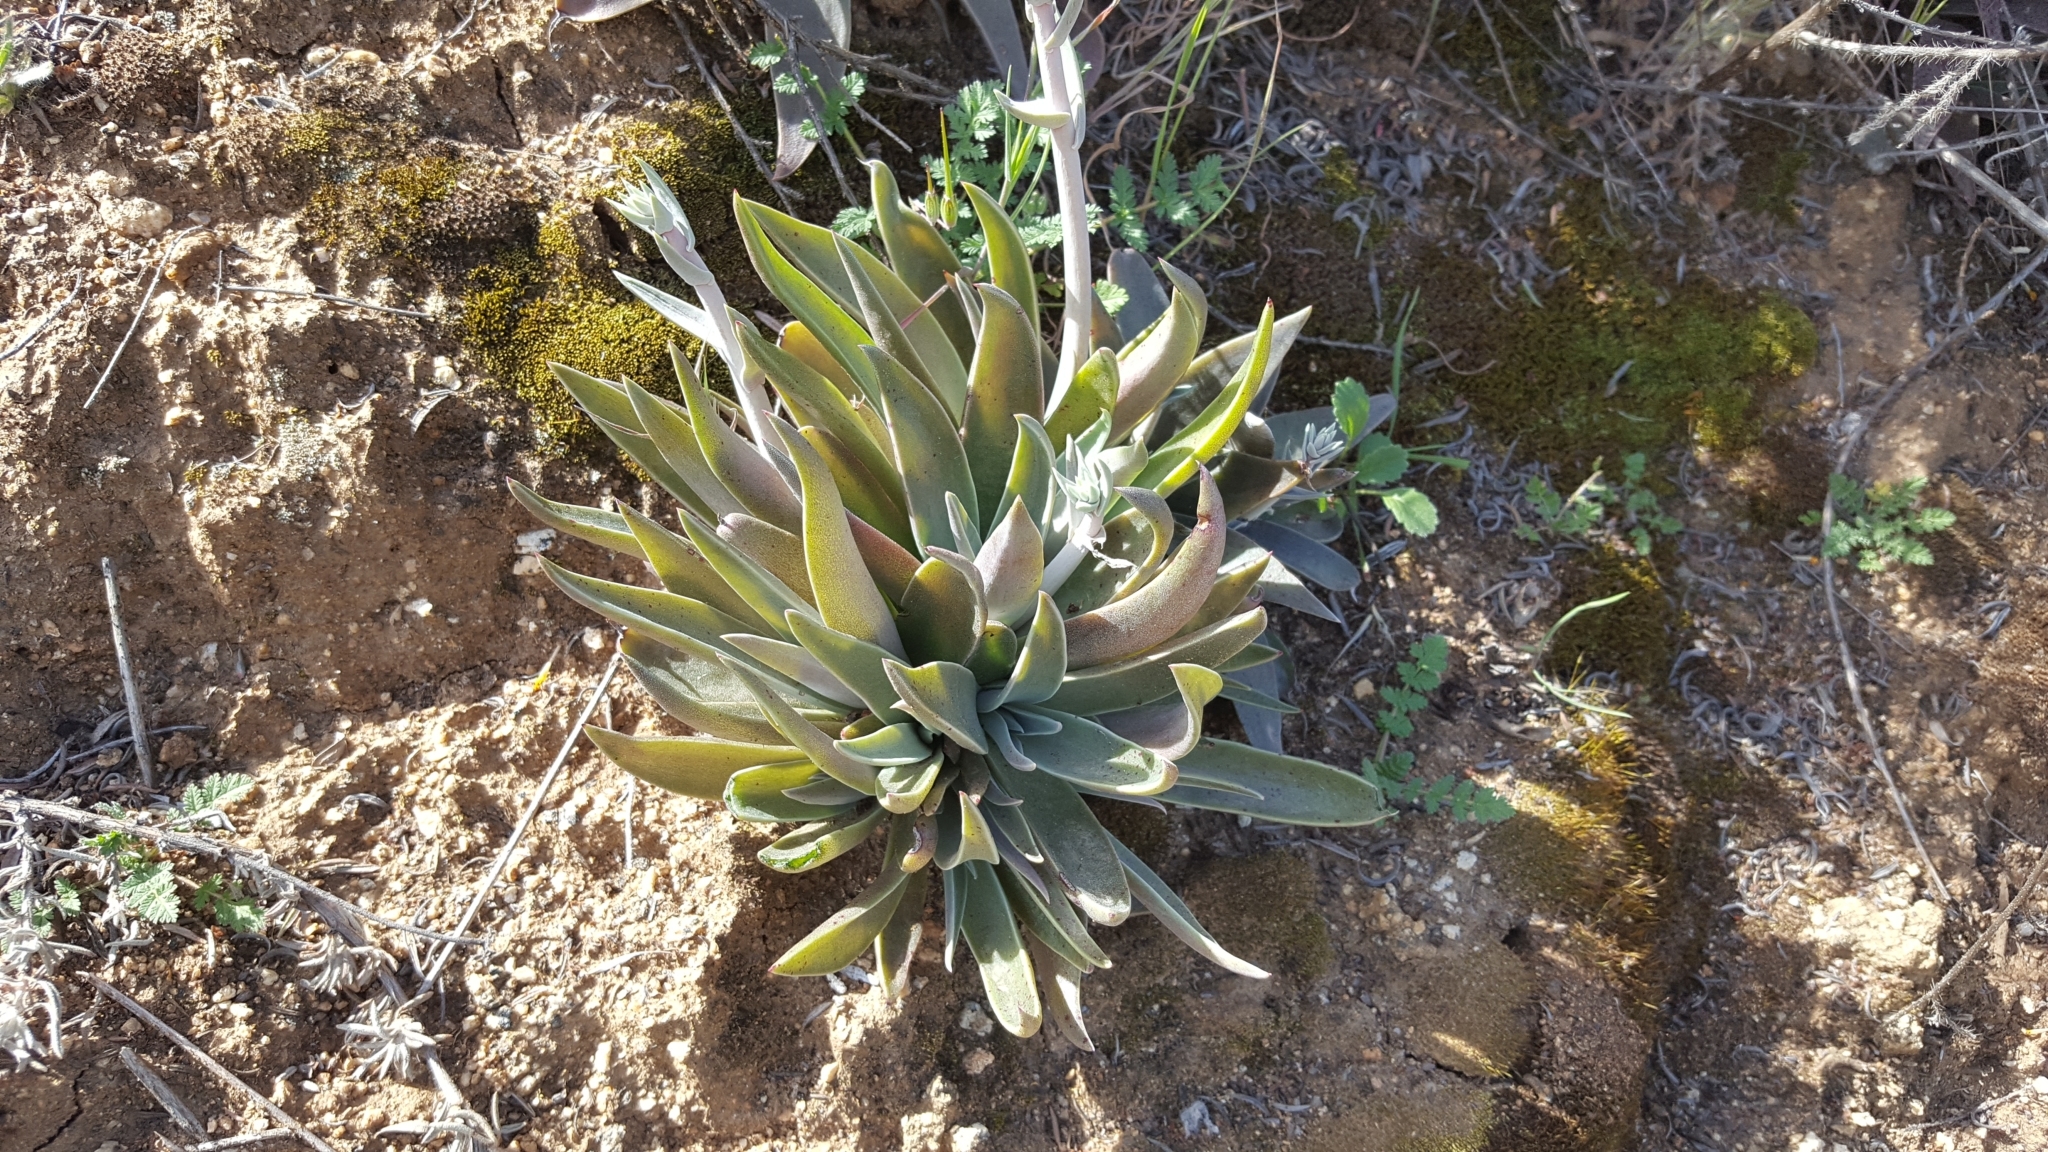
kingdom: Plantae
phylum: Tracheophyta
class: Magnoliopsida
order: Saxifragales
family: Crassulaceae
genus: Dudleya
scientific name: Dudleya lanceolata
